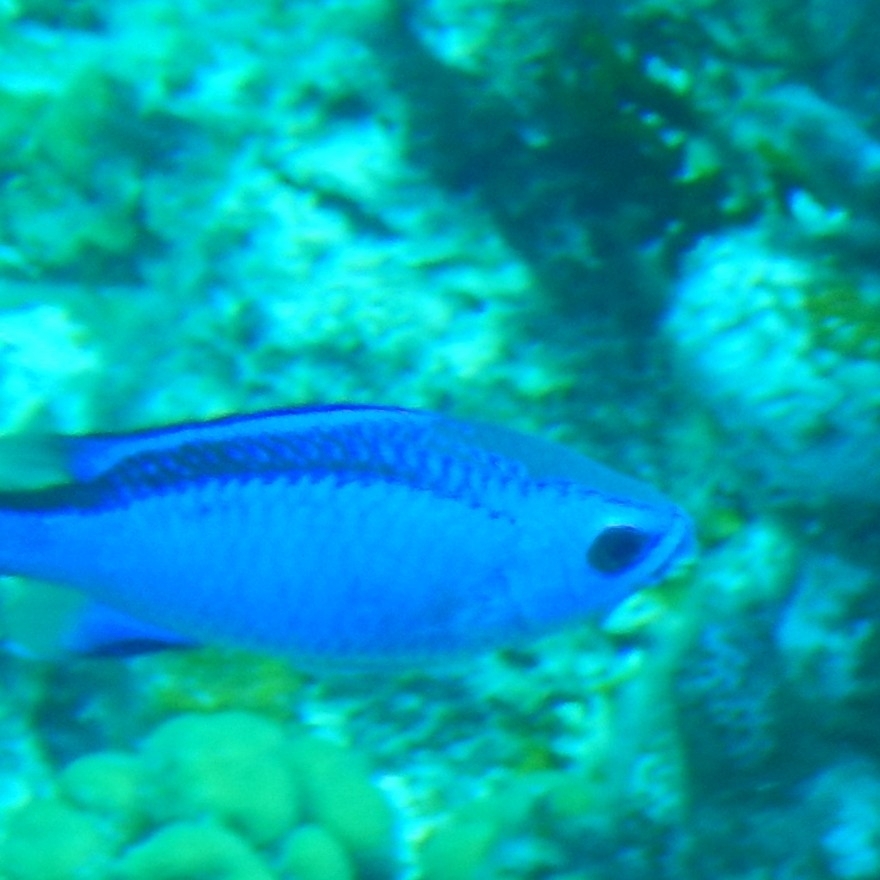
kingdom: Animalia
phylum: Chordata
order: Perciformes
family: Pomacentridae
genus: Chromis
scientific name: Chromis cyanea
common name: Blue chromis
